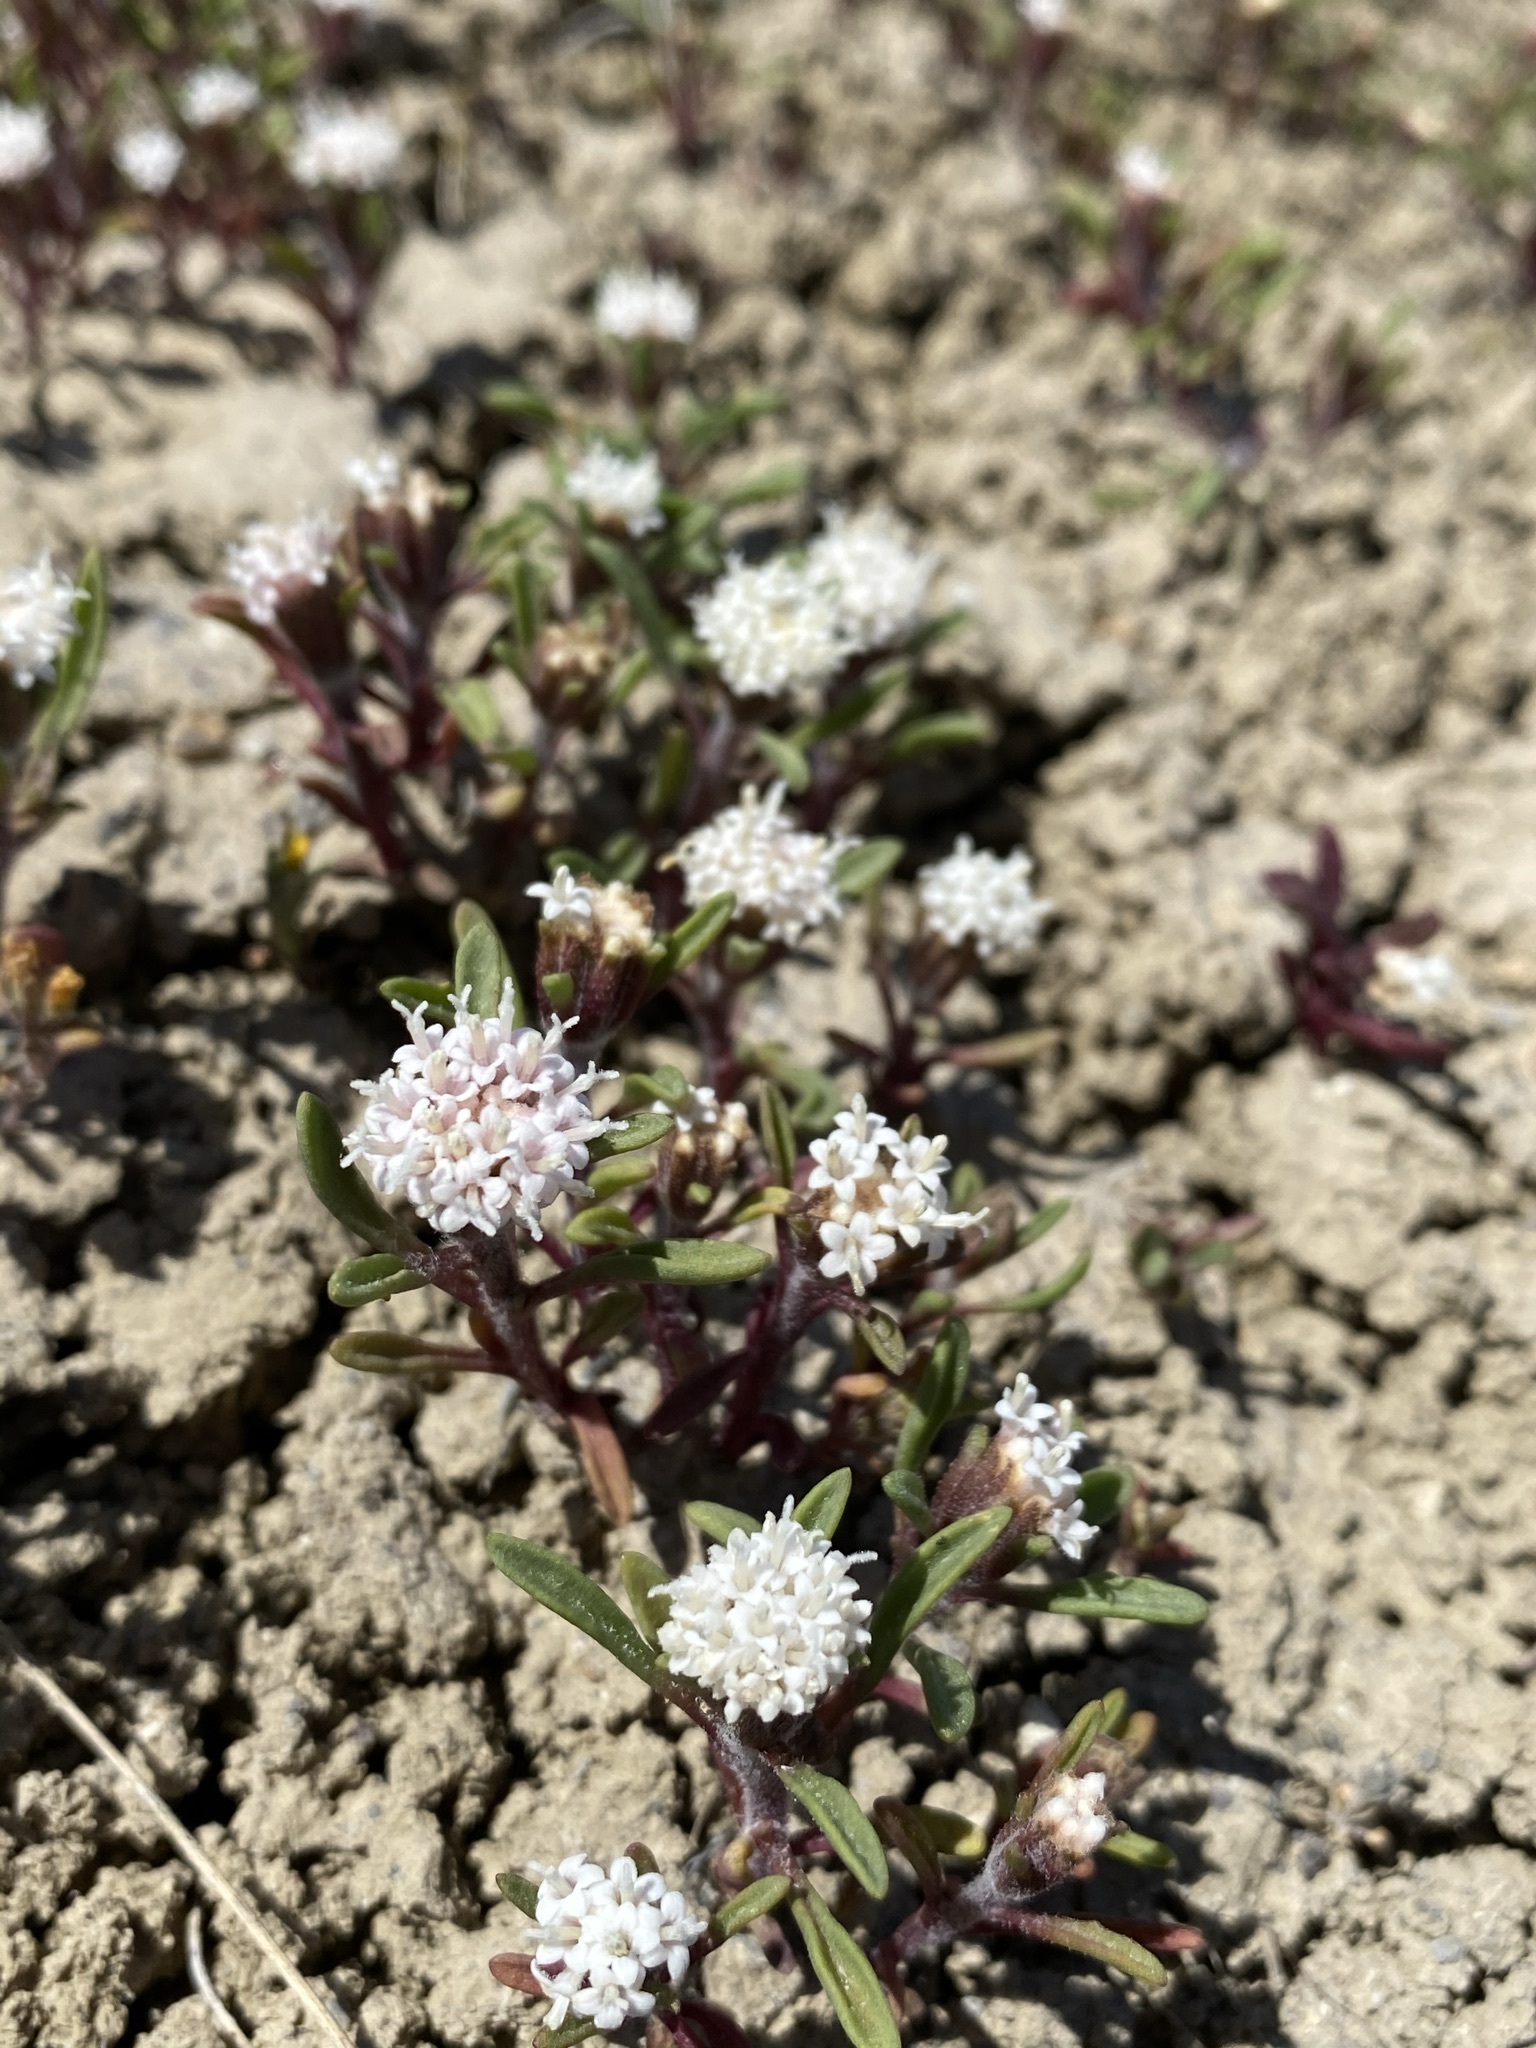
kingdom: Plantae
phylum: Tracheophyta
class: Magnoliopsida
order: Asterales
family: Asteraceae
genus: Chaenactis
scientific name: Chaenactis cusickii
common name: Cusick's pincushion
